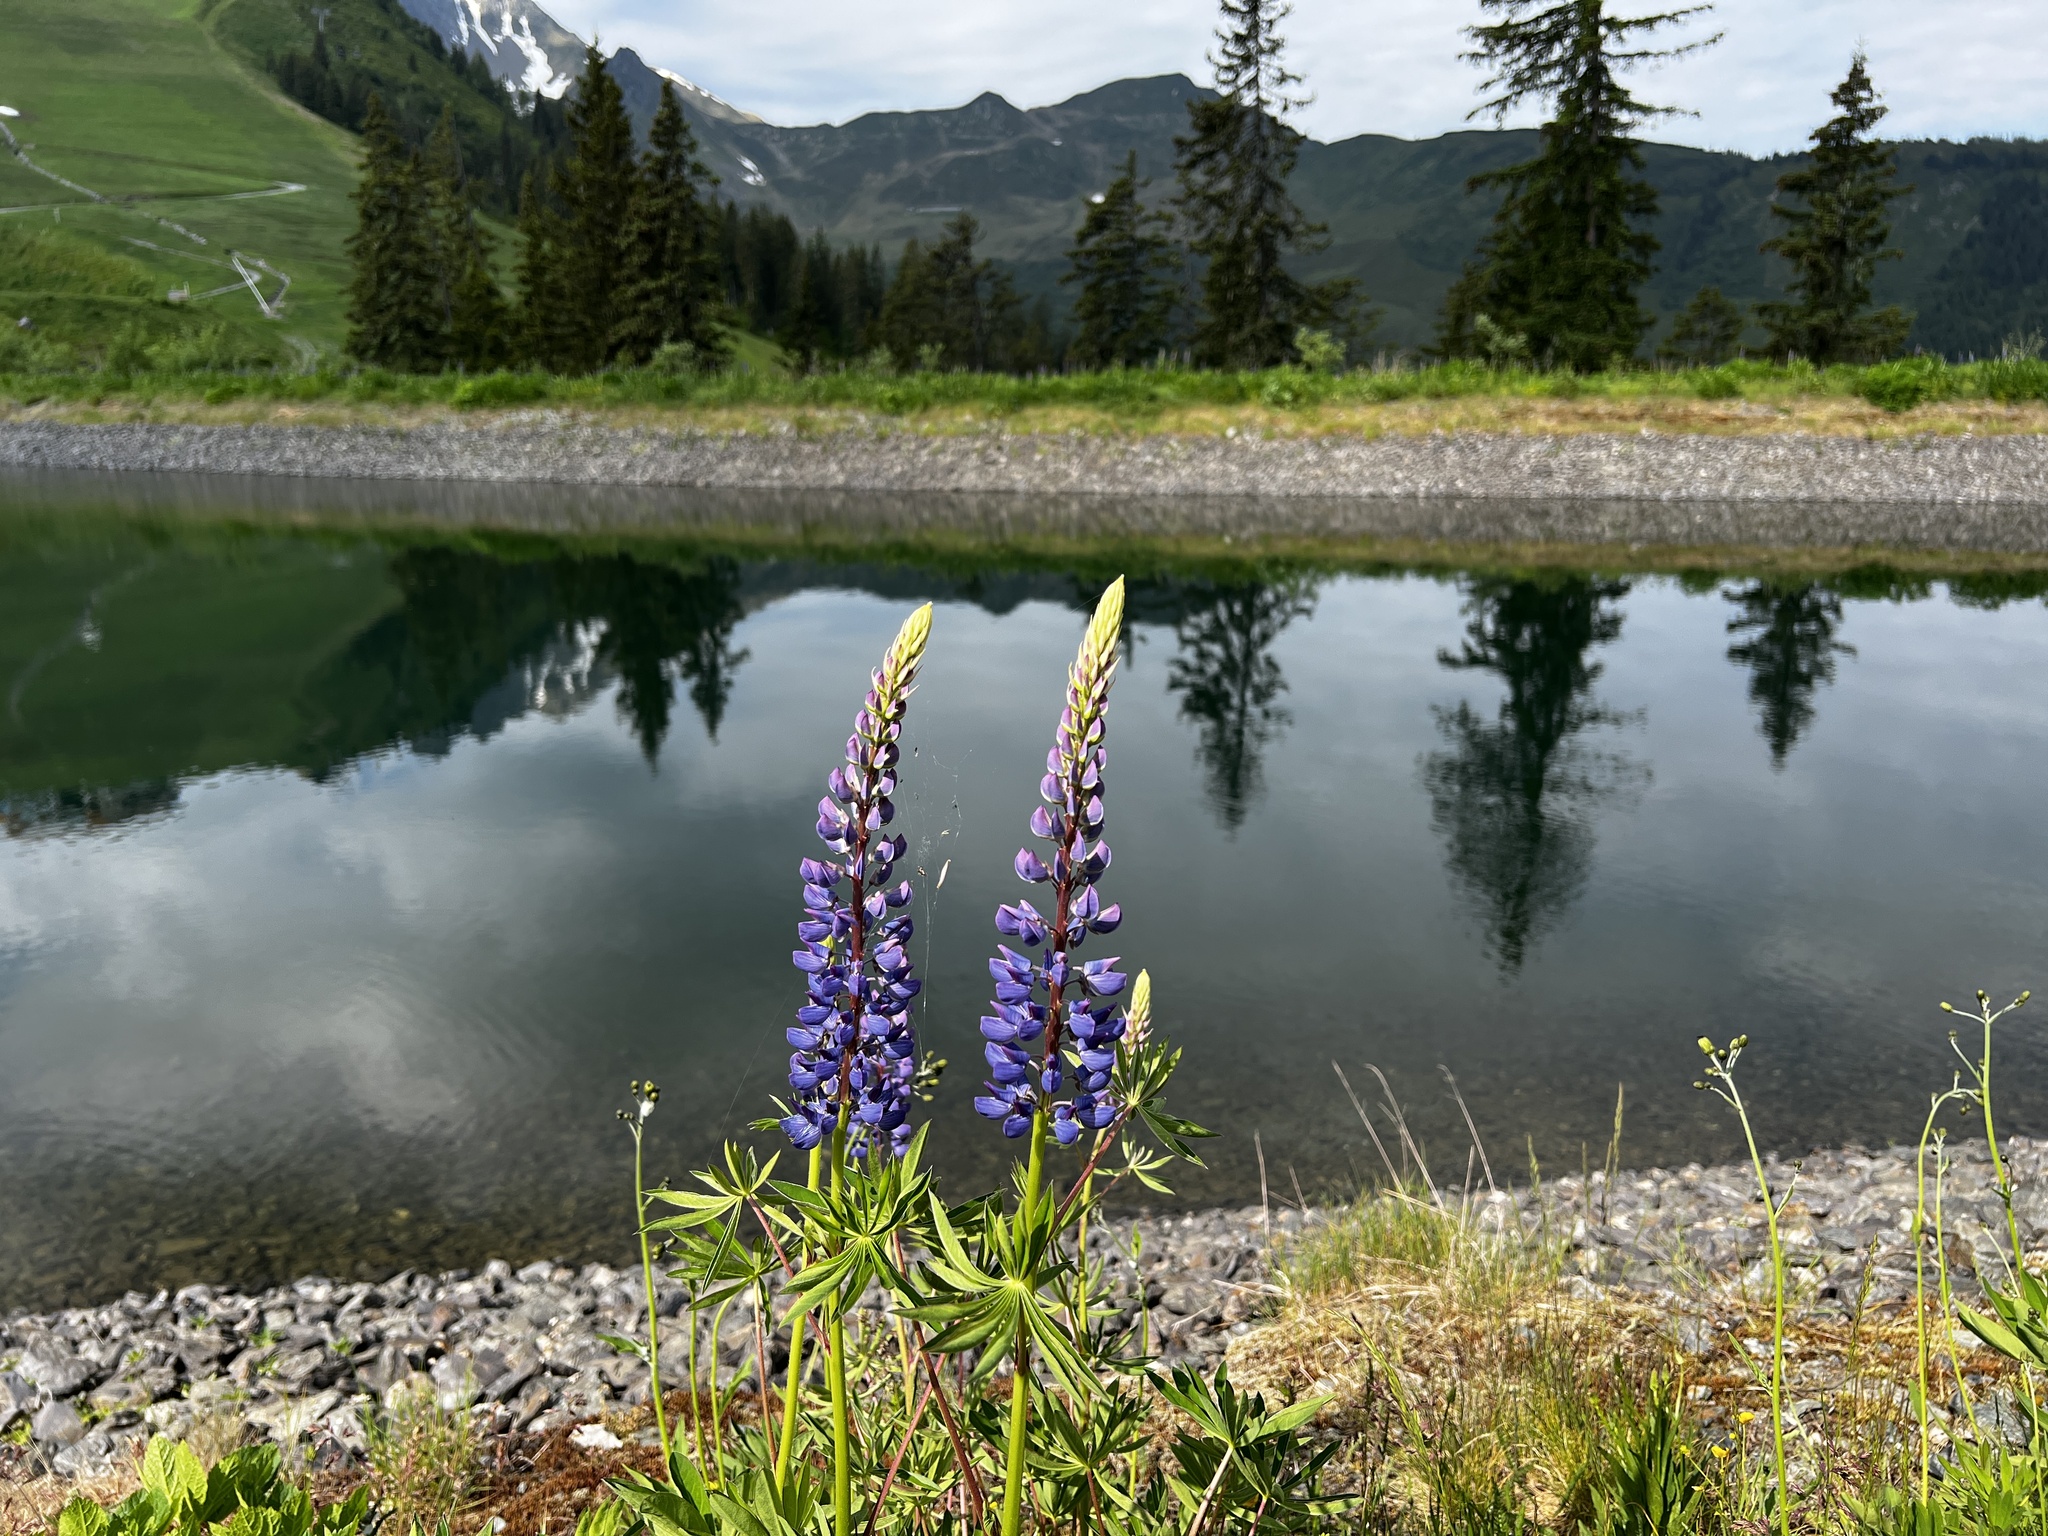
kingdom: Plantae
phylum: Tracheophyta
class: Magnoliopsida
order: Fabales
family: Fabaceae
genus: Lupinus
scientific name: Lupinus polyphyllus
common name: Garden lupin
